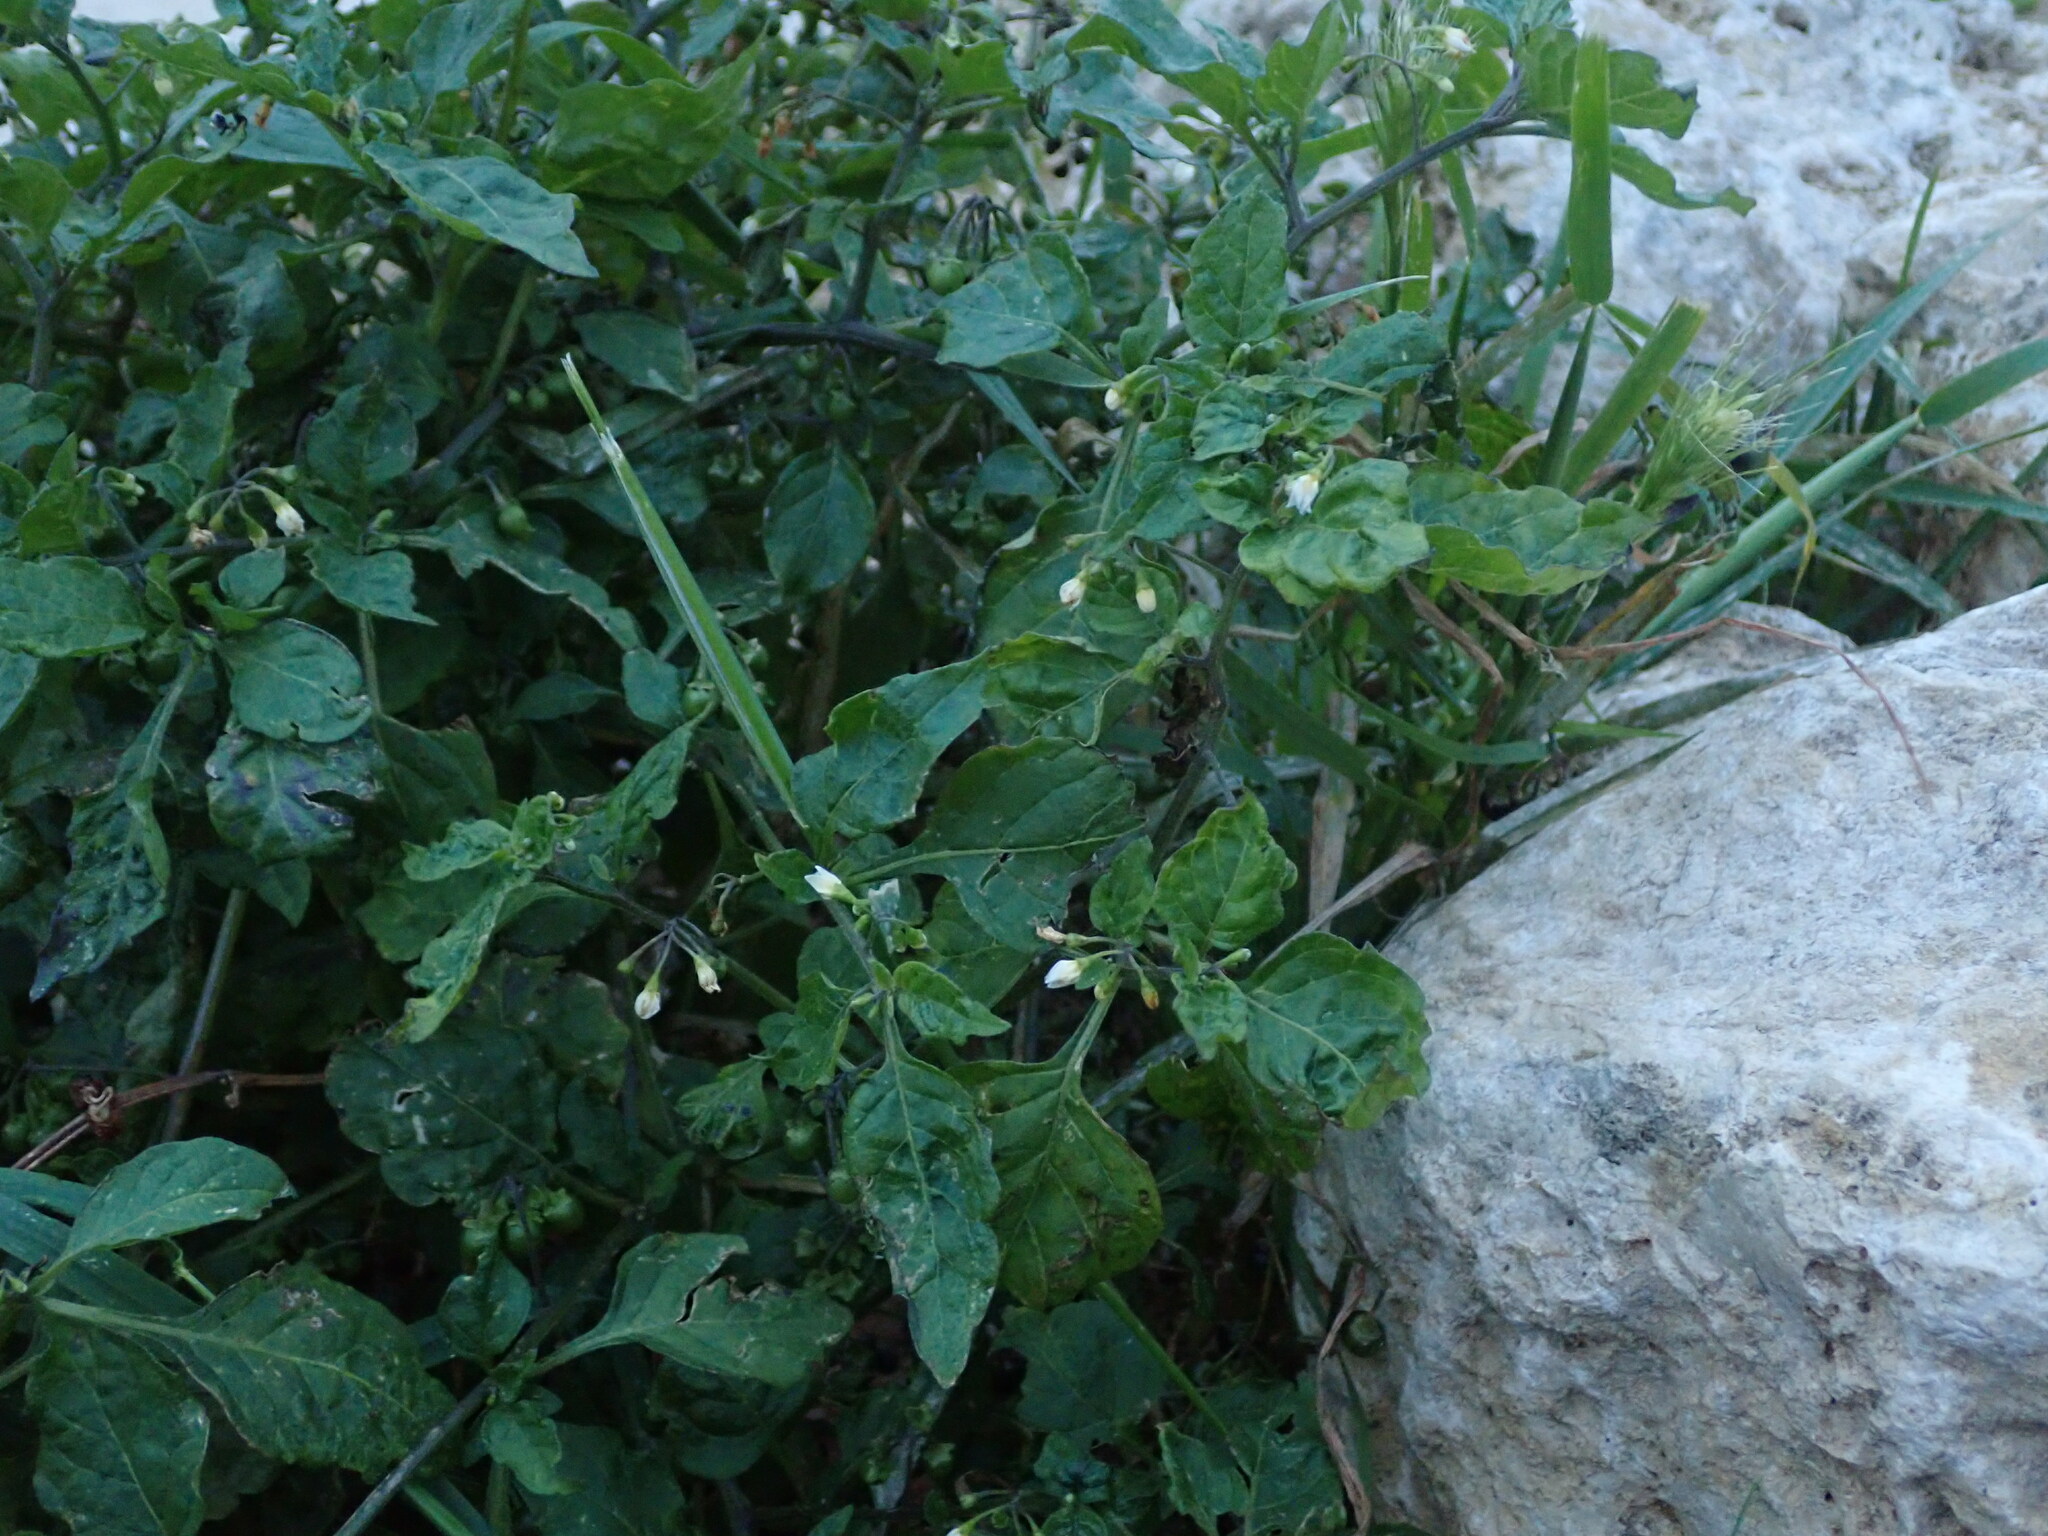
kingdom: Plantae
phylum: Tracheophyta
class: Magnoliopsida
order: Solanales
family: Solanaceae
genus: Solanum
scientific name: Solanum nigrum
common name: Black nightshade
